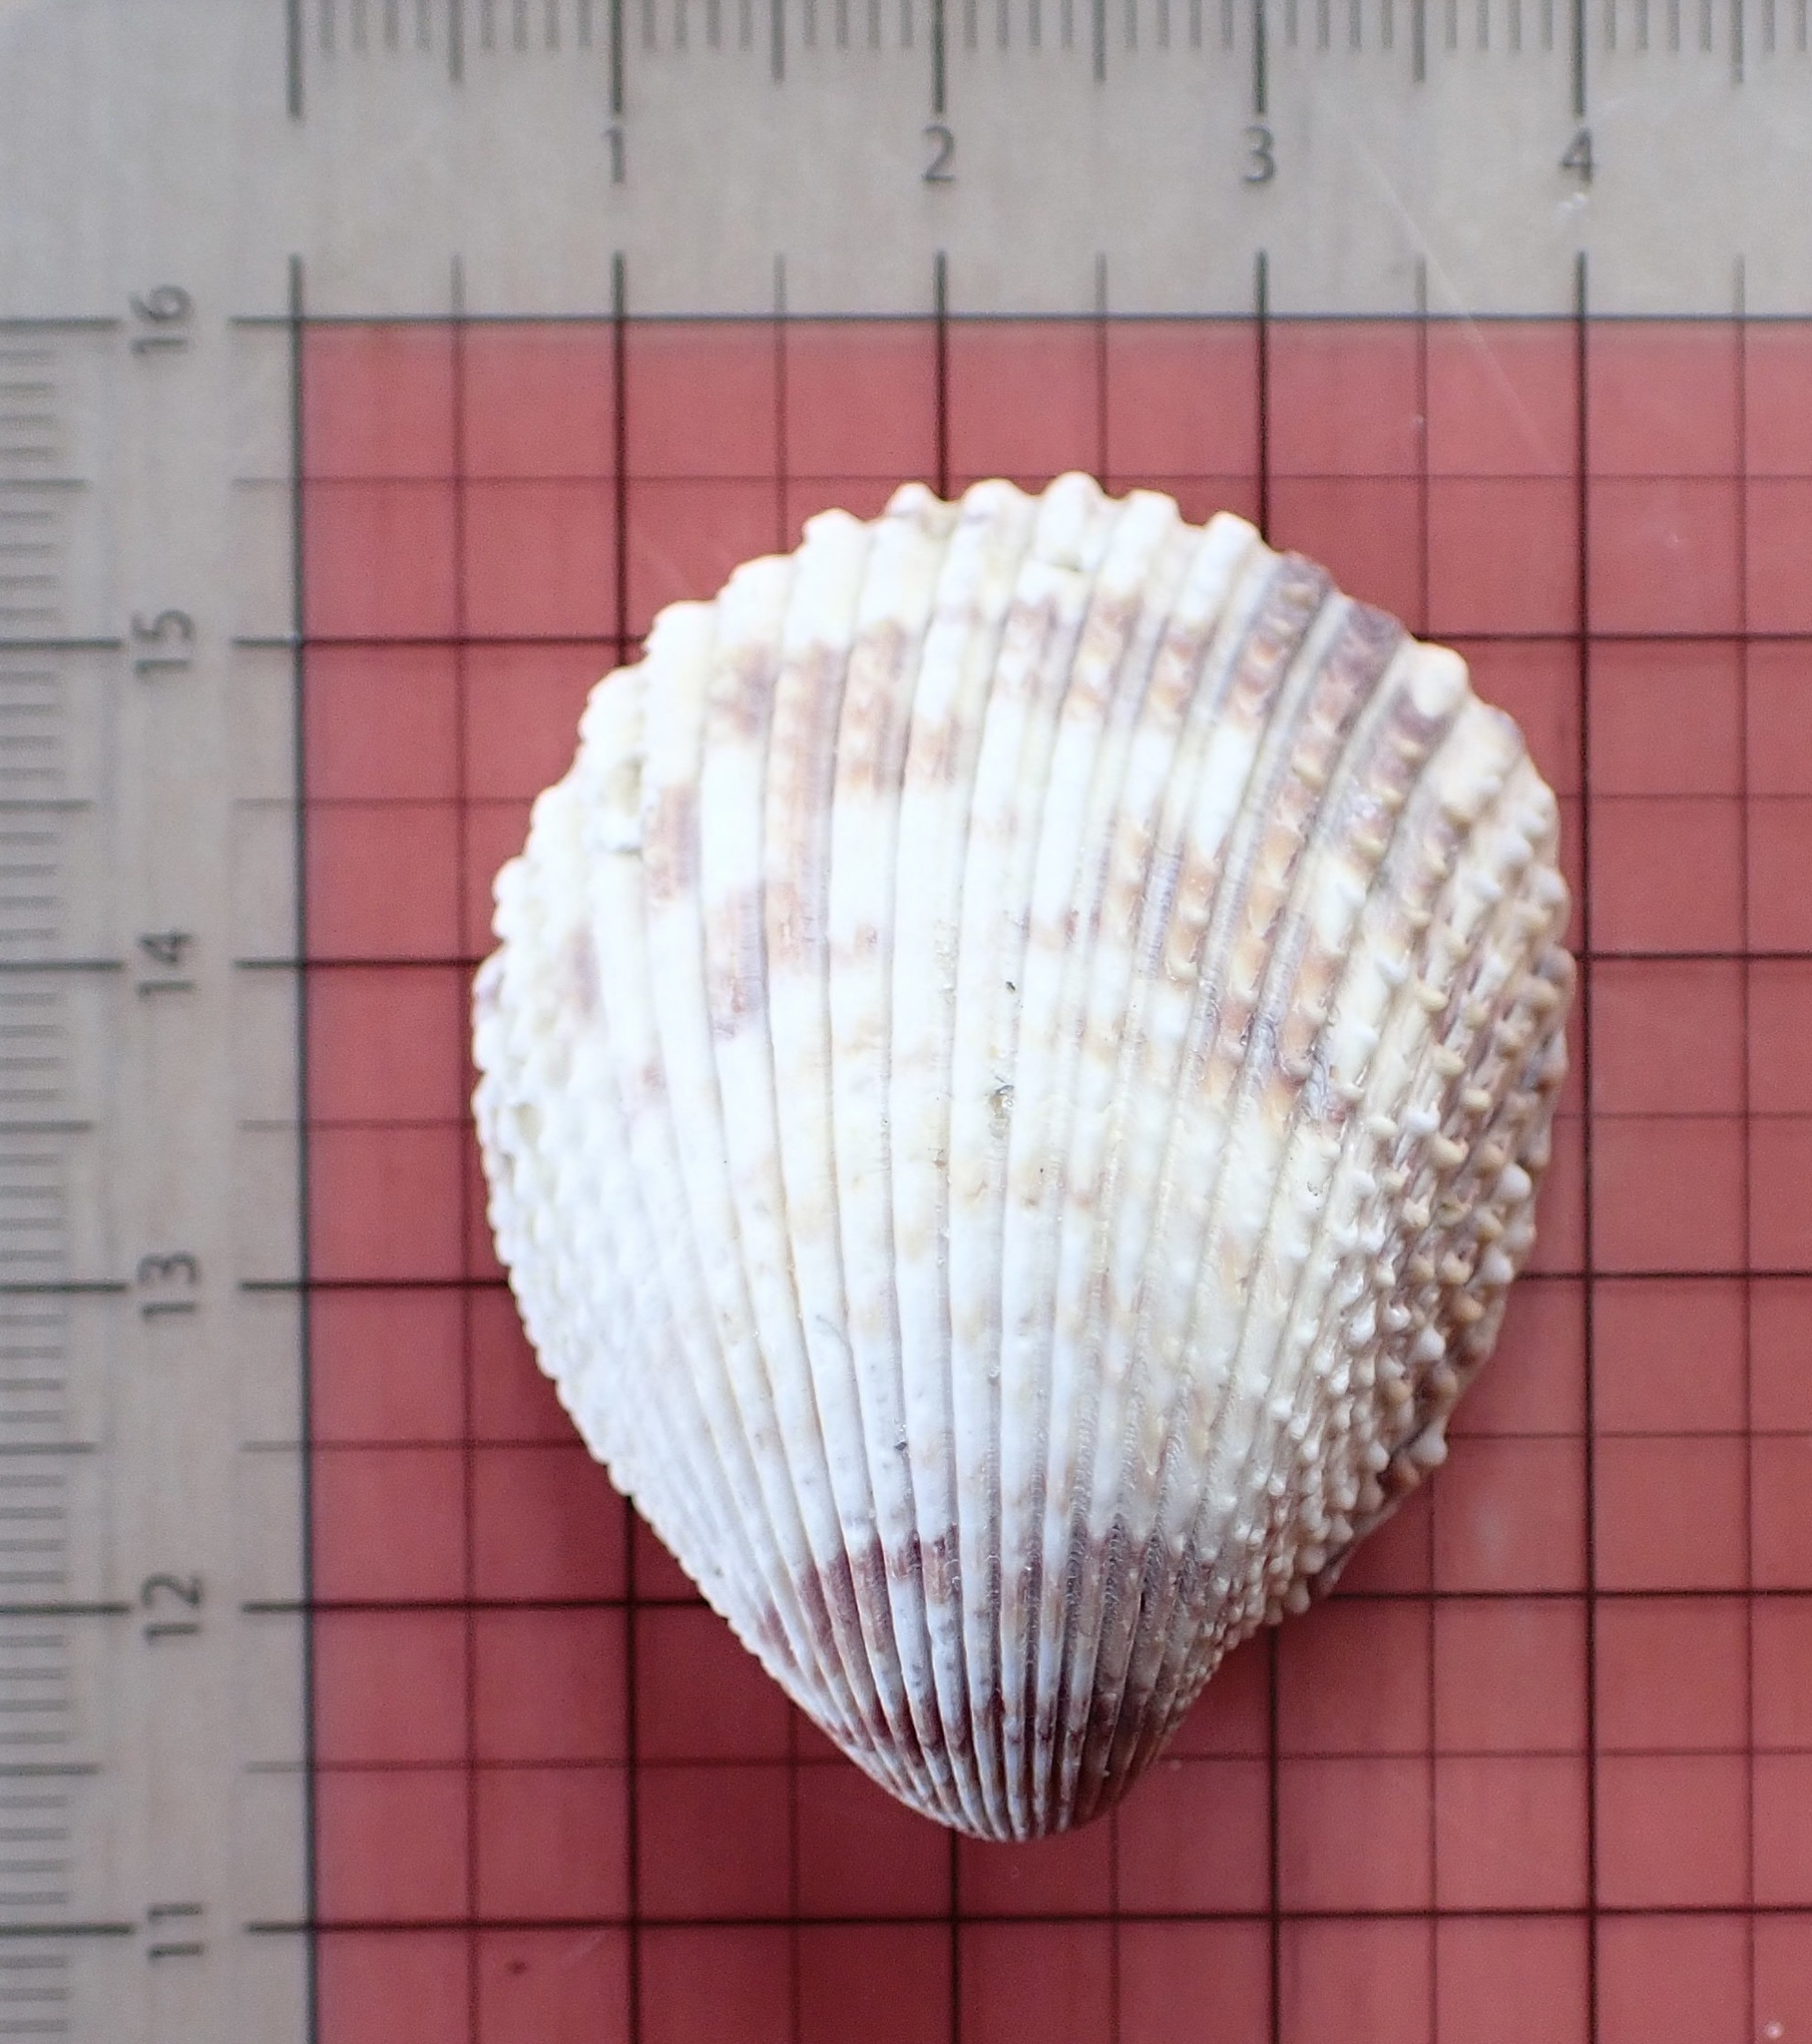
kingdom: Animalia
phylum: Mollusca
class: Bivalvia
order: Cardiida
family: Cardiidae
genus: Trachycardium
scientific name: Trachycardium egmontianum
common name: Florida pricklycockle
